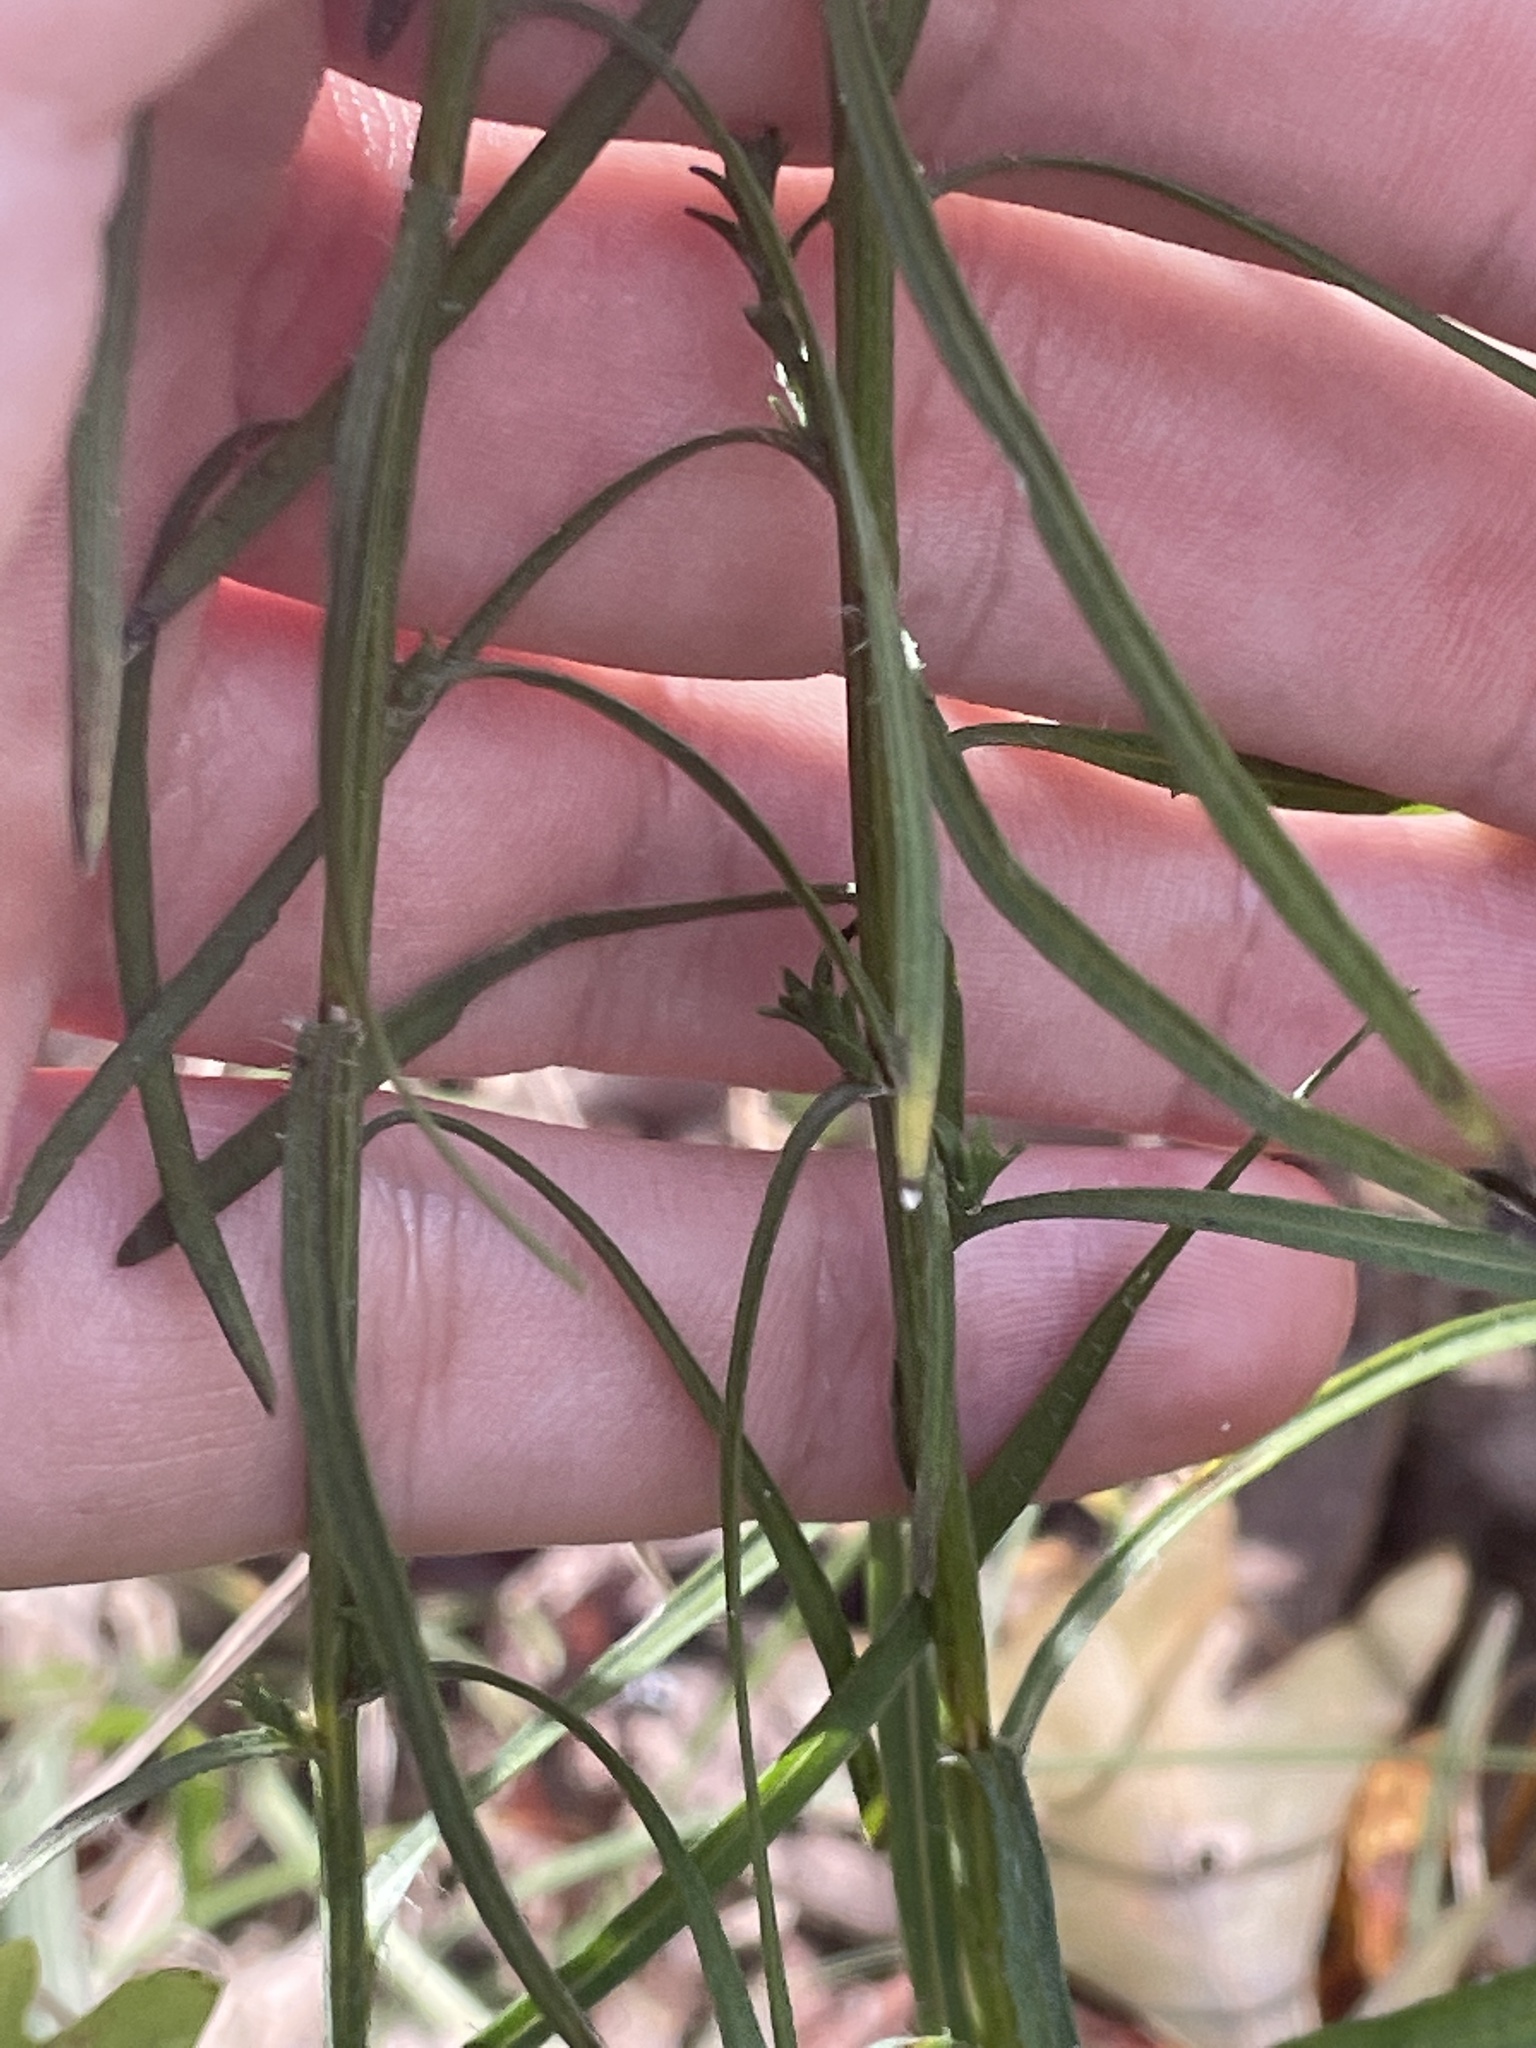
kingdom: Plantae
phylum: Tracheophyta
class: Magnoliopsida
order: Asterales
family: Asteraceae
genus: Liatris
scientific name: Liatris pilosa
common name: Grass-leaf gayfeather
